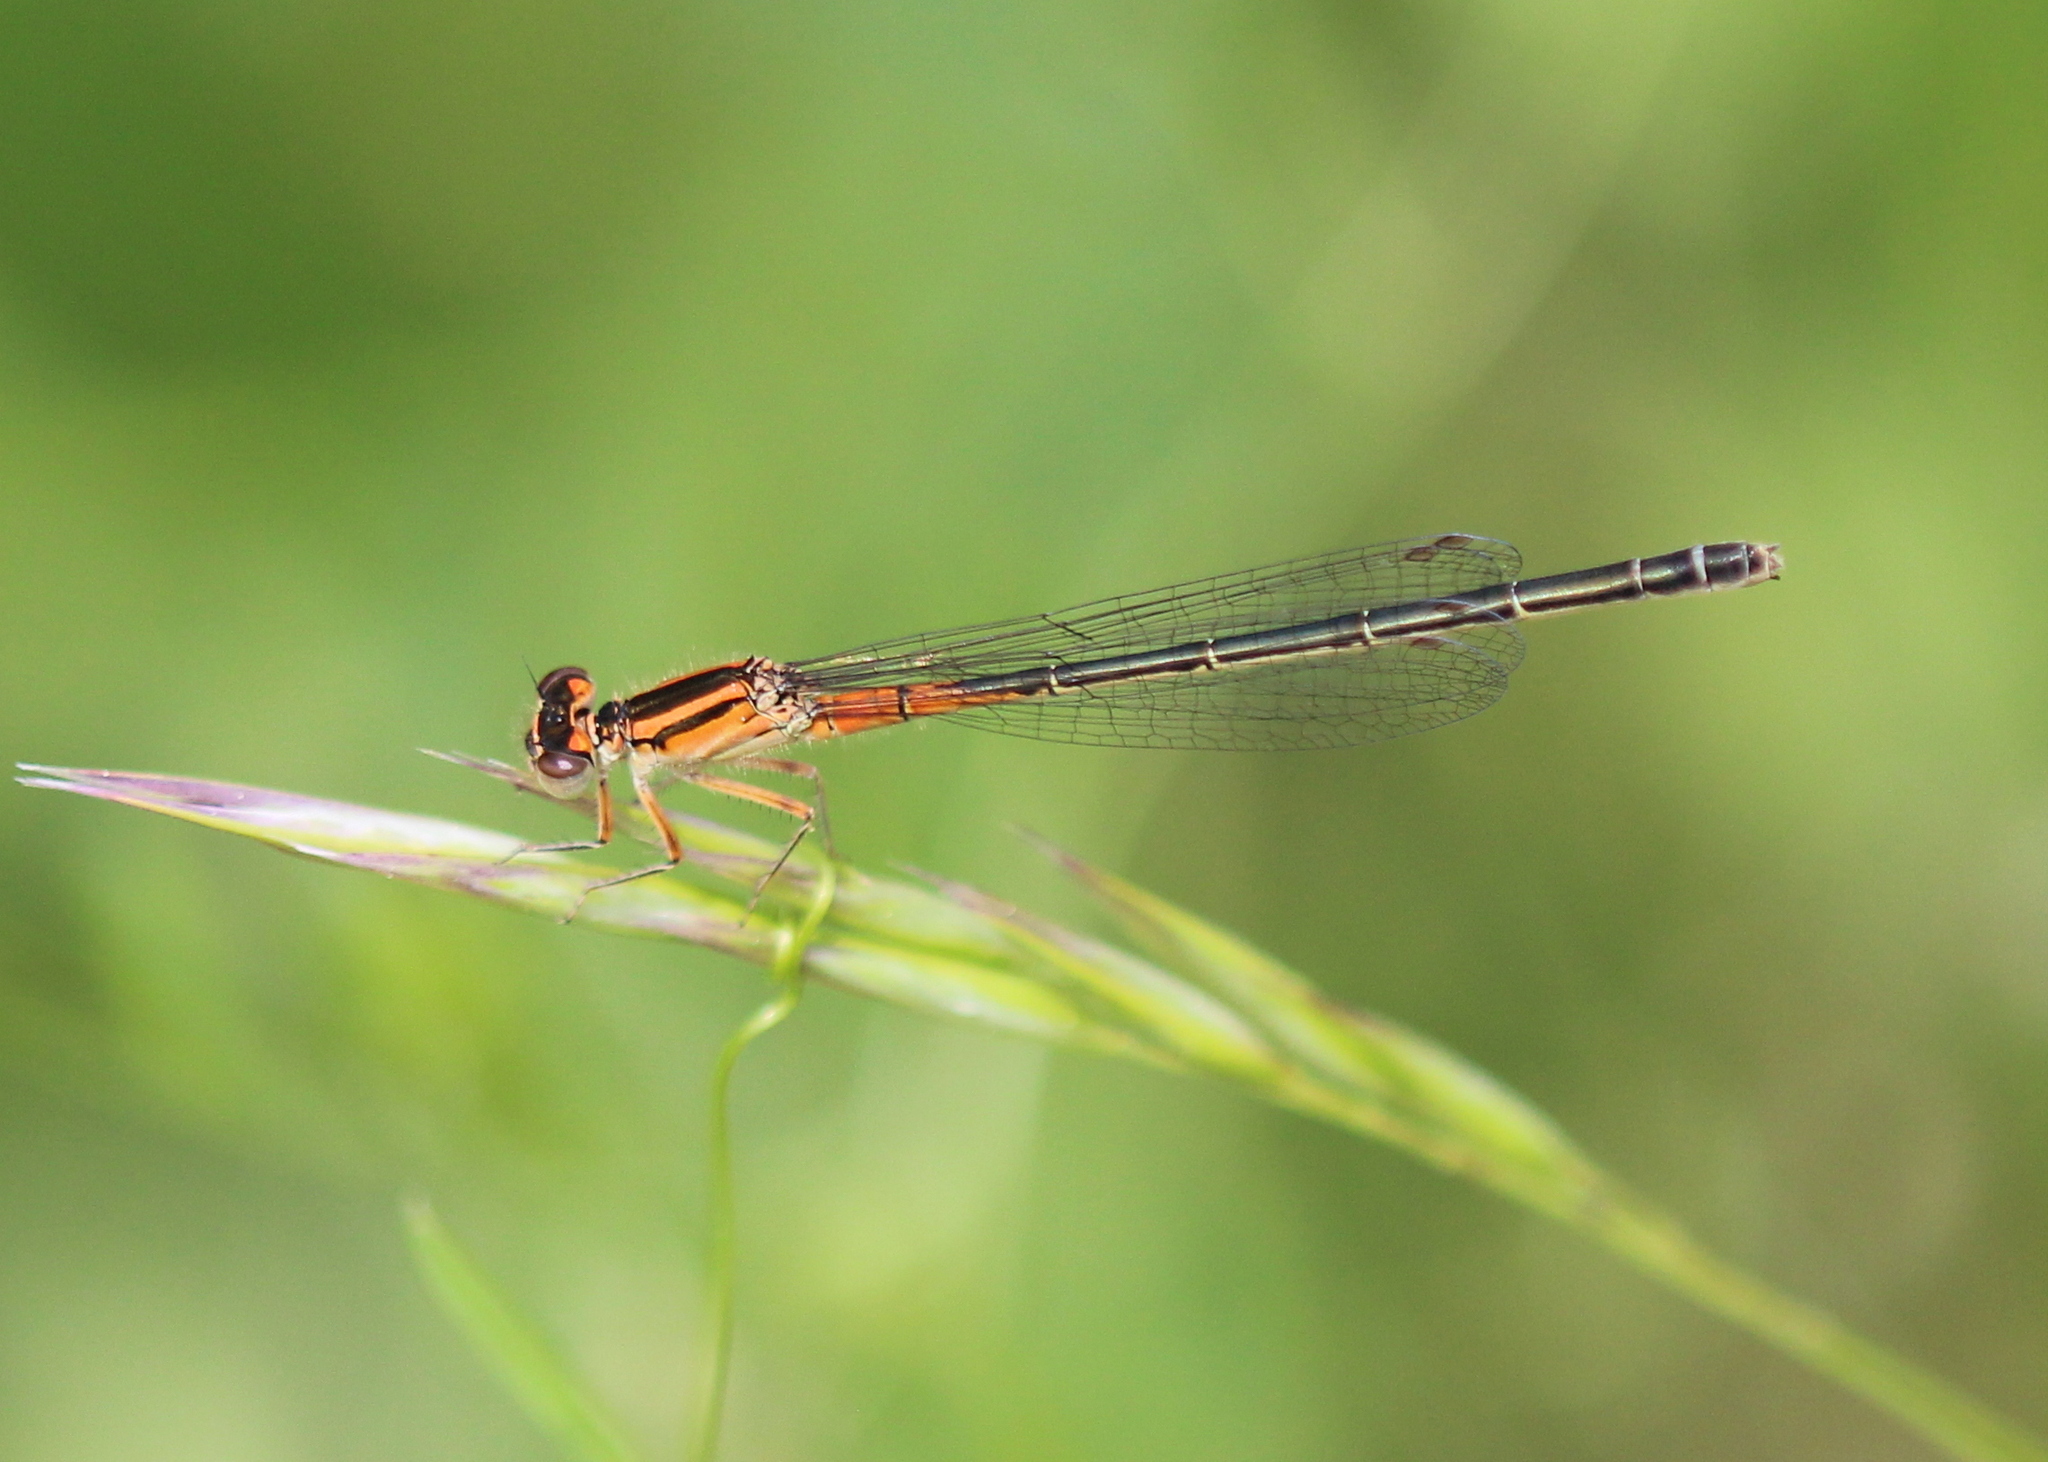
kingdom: Animalia
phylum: Arthropoda
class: Insecta
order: Odonata
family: Coenagrionidae
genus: Ischnura
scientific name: Ischnura verticalis
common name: Eastern forktail
